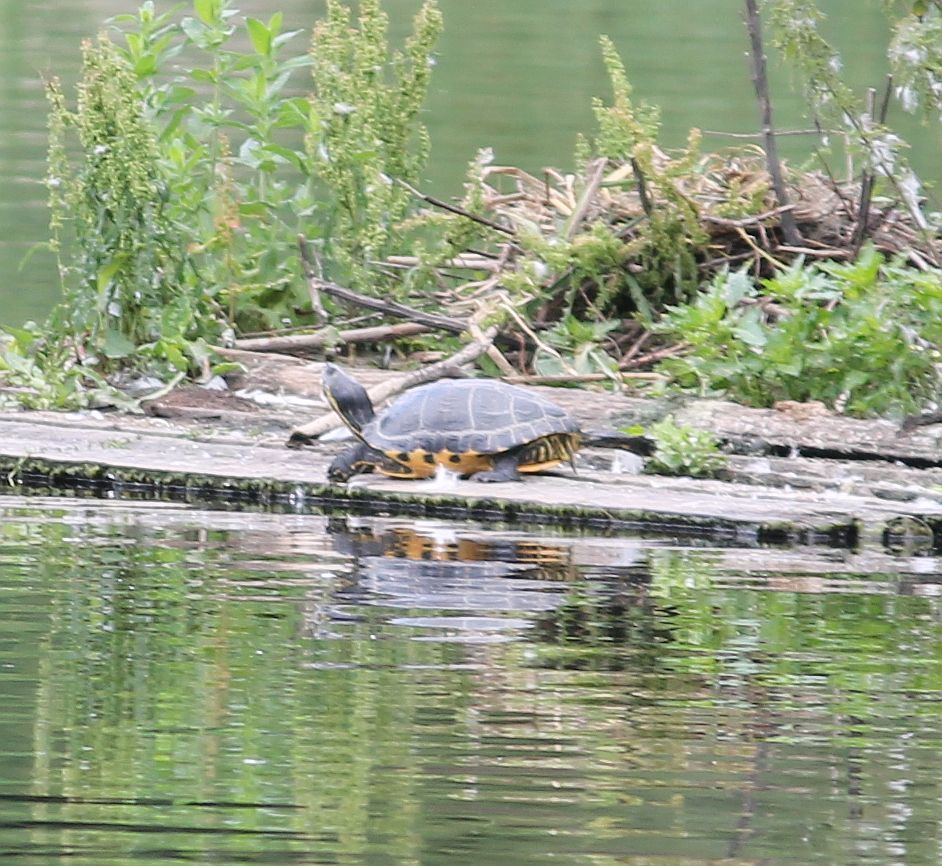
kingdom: Animalia
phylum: Chordata
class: Testudines
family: Emydidae
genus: Trachemys
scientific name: Trachemys scripta
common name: Slider
